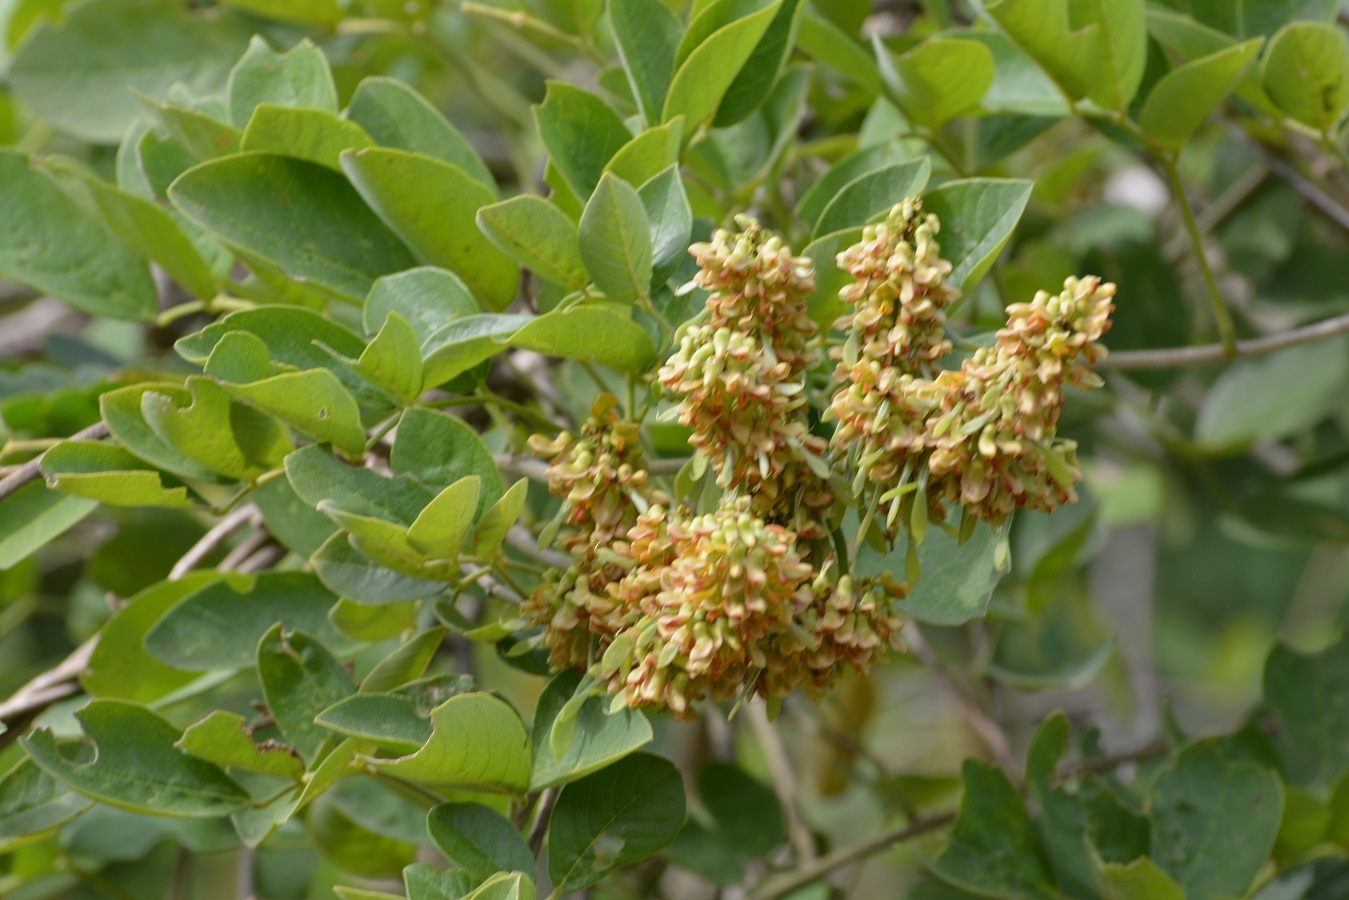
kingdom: Plantae
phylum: Tracheophyta
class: Magnoliopsida
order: Fabales
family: Fabaceae
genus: Nissolia
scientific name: Nissolia fruticosa
